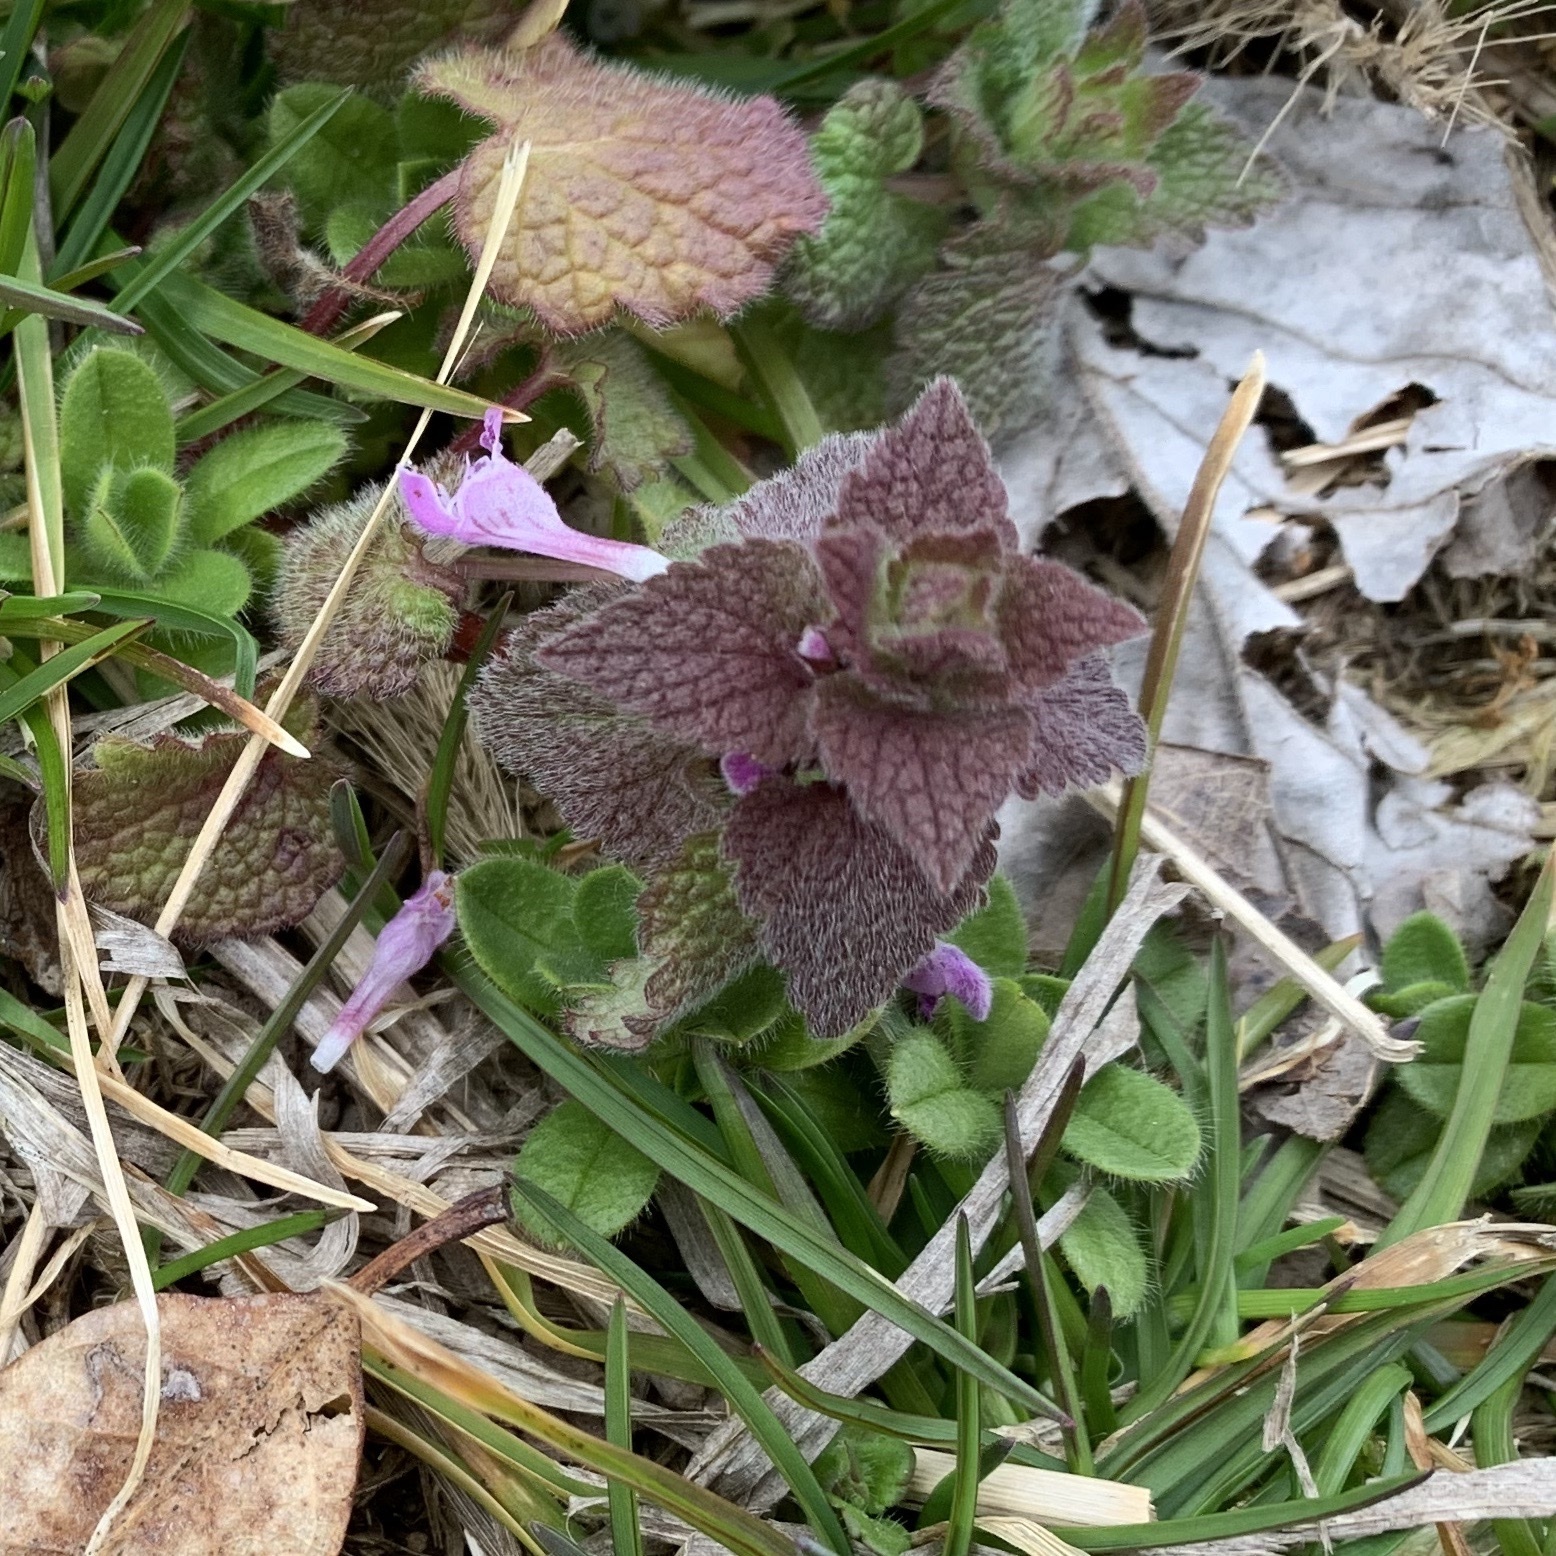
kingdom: Plantae
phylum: Tracheophyta
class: Magnoliopsida
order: Lamiales
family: Lamiaceae
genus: Lamium
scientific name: Lamium purpureum
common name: Red dead-nettle
